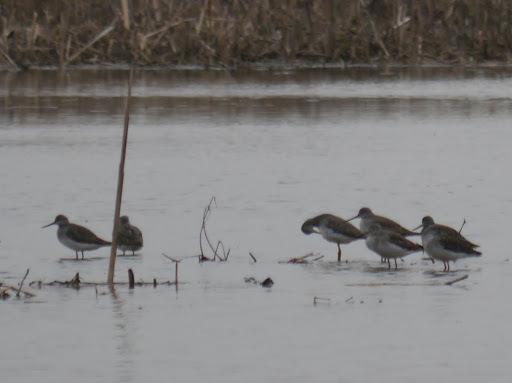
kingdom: Animalia
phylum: Chordata
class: Aves
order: Charadriiformes
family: Scolopacidae
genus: Tringa
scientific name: Tringa melanoleuca
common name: Greater yellowlegs
